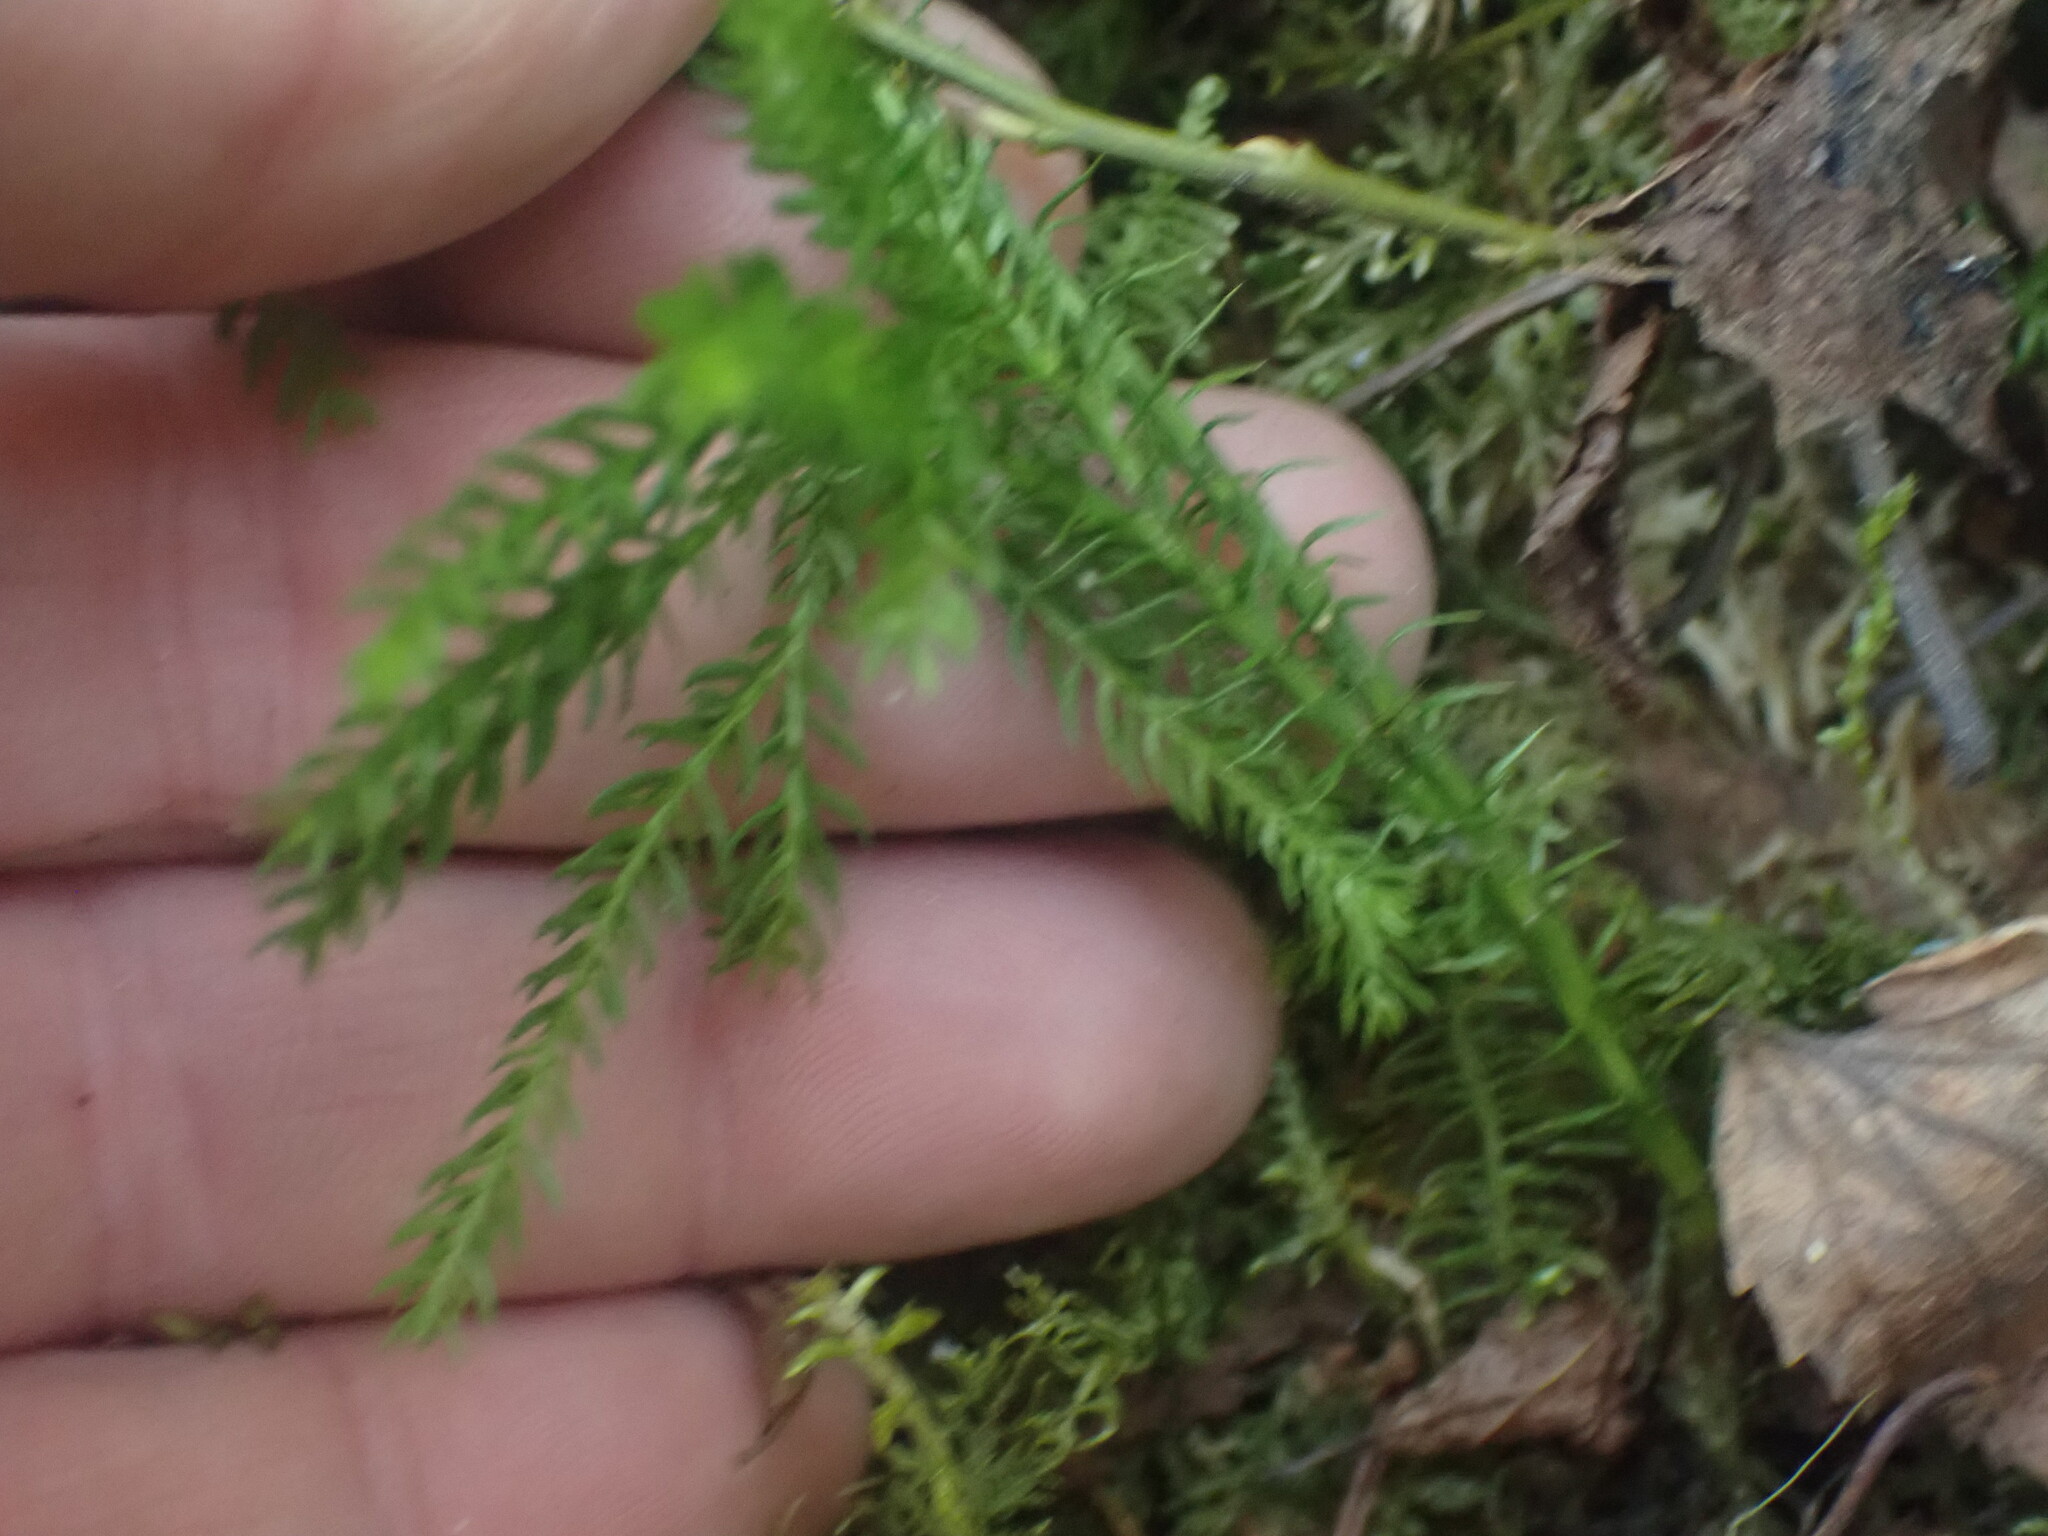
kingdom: Plantae
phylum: Tracheophyta
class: Lycopodiopsida
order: Lycopodiales
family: Lycopodiaceae
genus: Dendrolycopodium
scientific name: Dendrolycopodium dendroideum
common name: Northern tree-clubmoss
